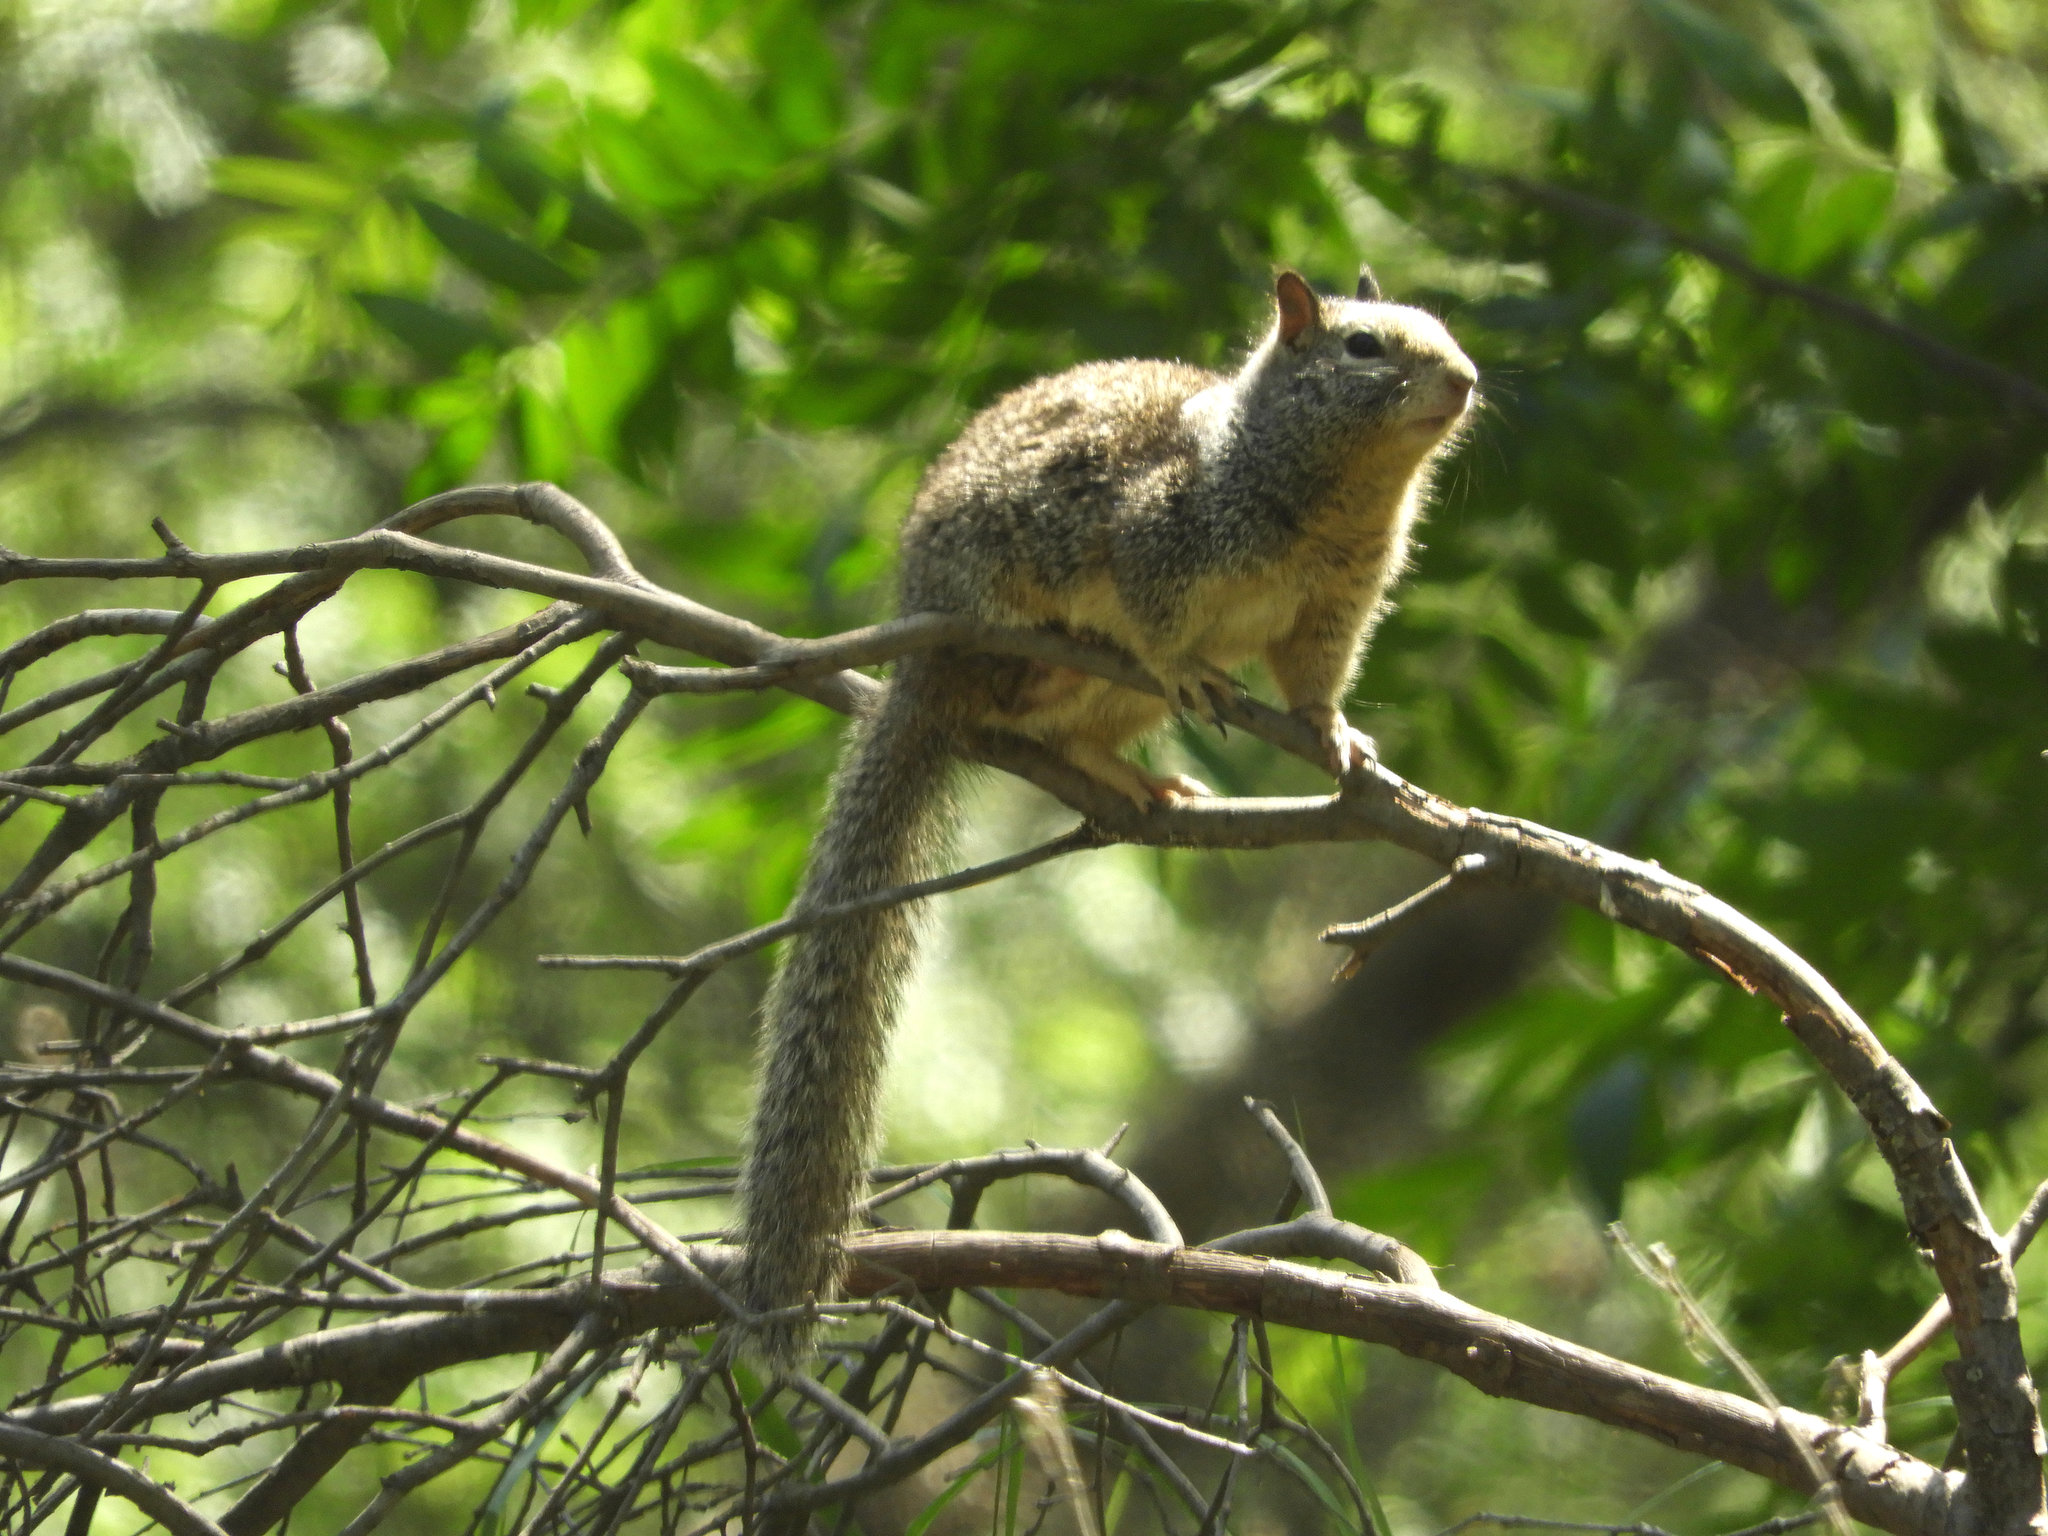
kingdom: Animalia
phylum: Chordata
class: Mammalia
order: Rodentia
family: Sciuridae
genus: Otospermophilus
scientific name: Otospermophilus beecheyi
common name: California ground squirrel
